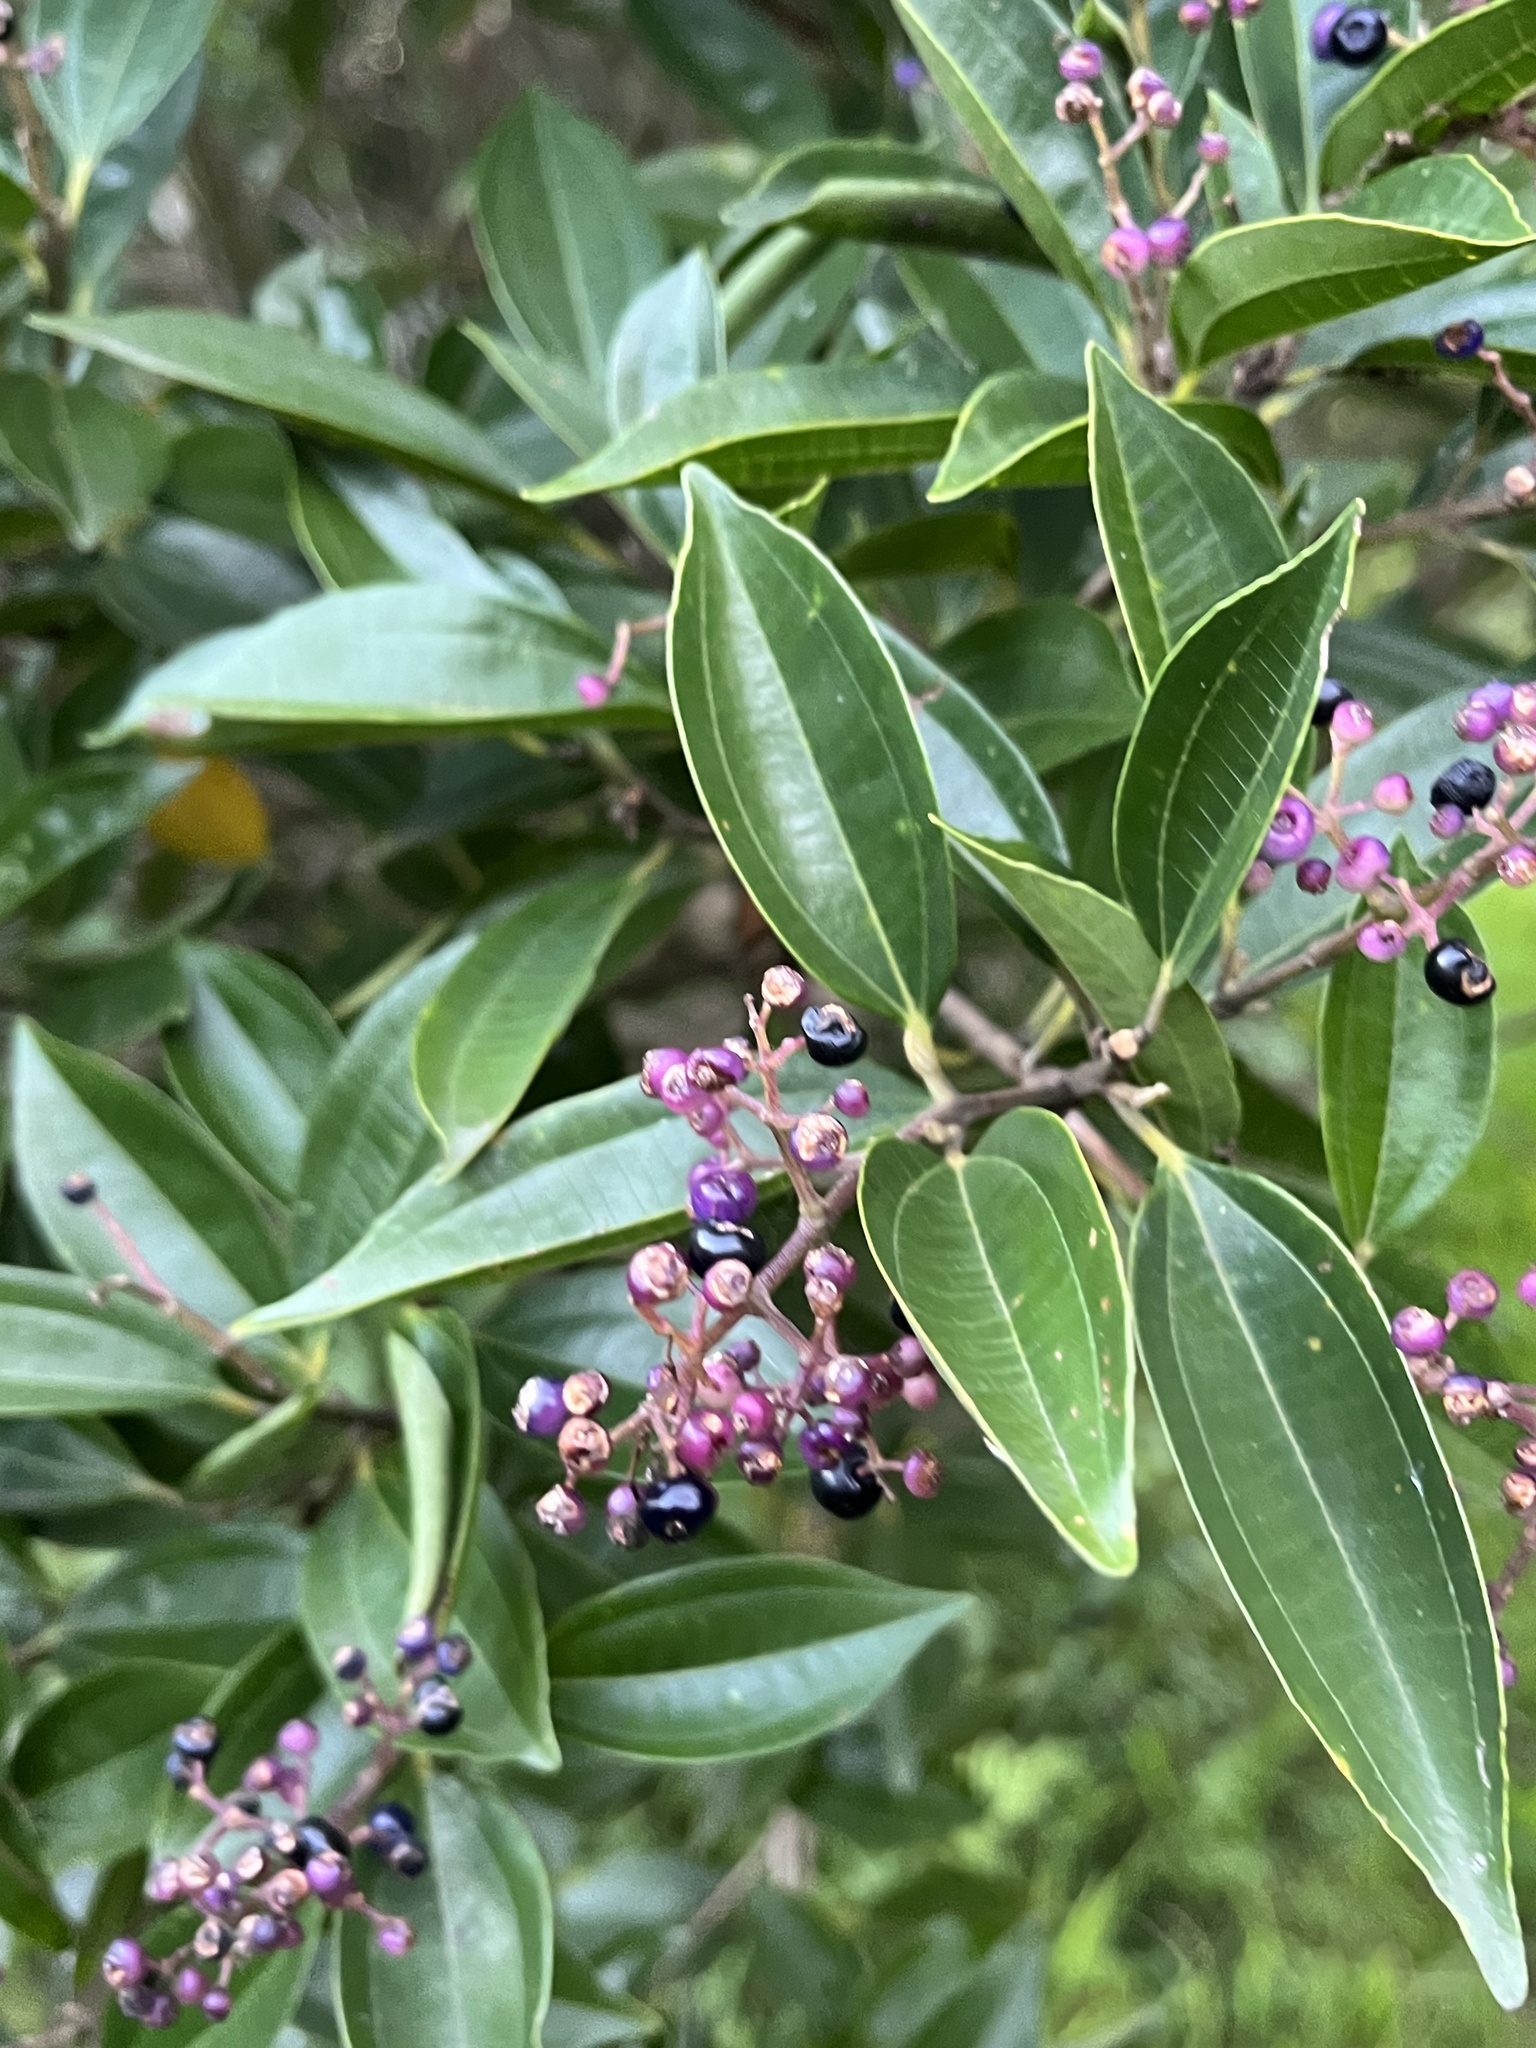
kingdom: Plantae
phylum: Tracheophyta
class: Magnoliopsida
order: Myrtales
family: Melastomataceae
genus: Miconia
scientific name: Miconia ligustroides
